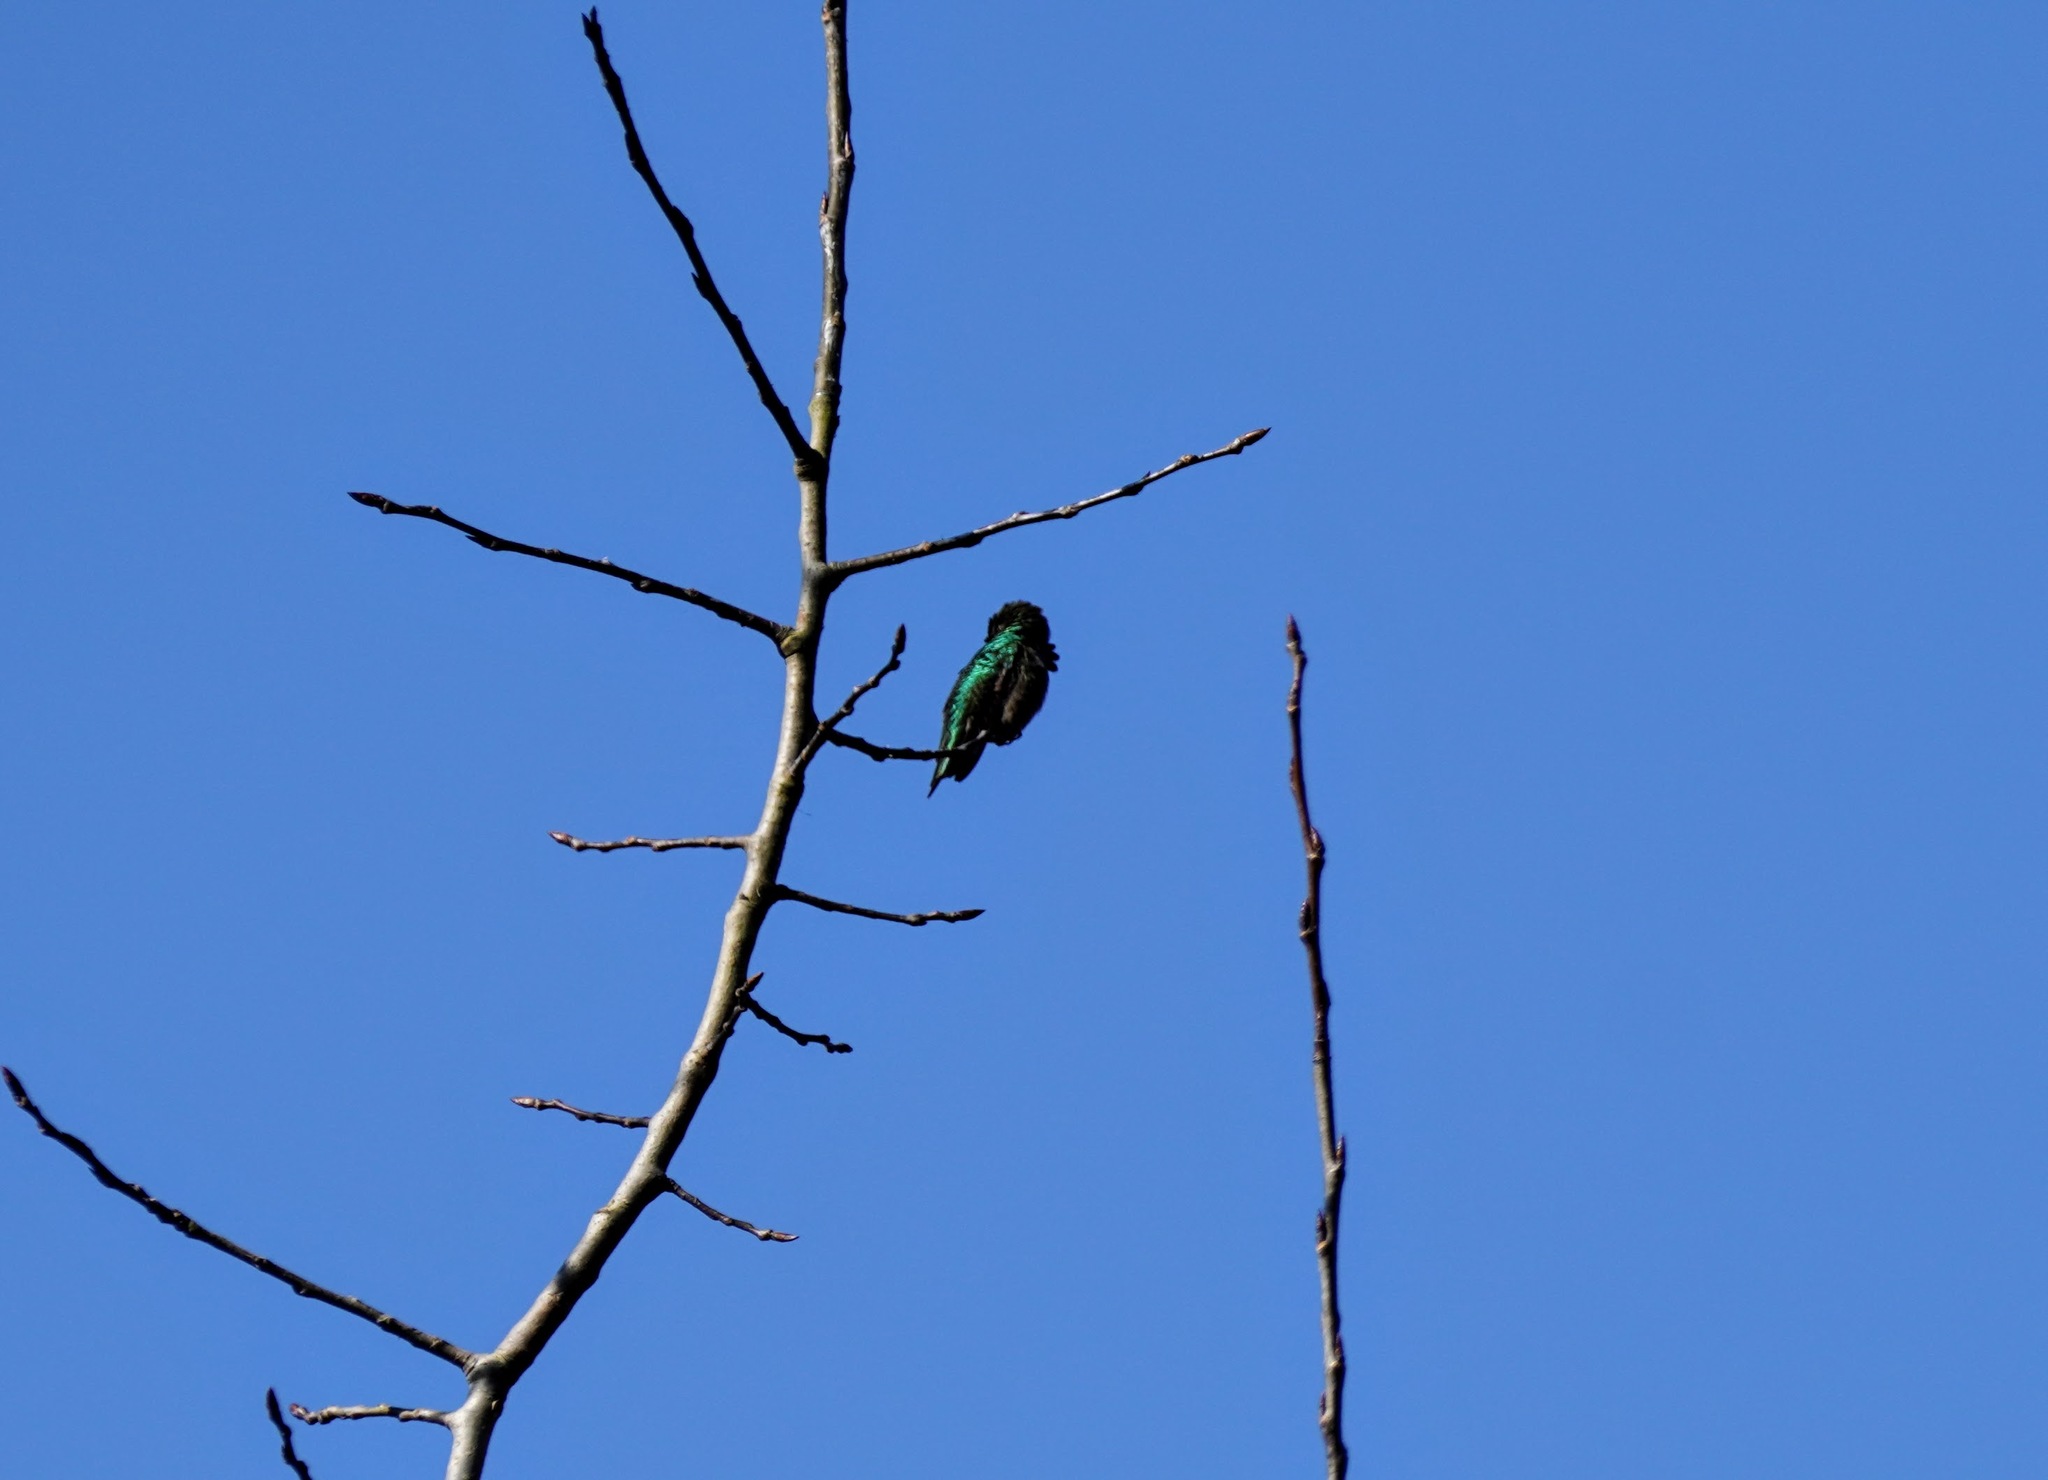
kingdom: Animalia
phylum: Chordata
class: Aves
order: Apodiformes
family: Trochilidae
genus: Calypte
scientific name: Calypte anna
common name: Anna's hummingbird
